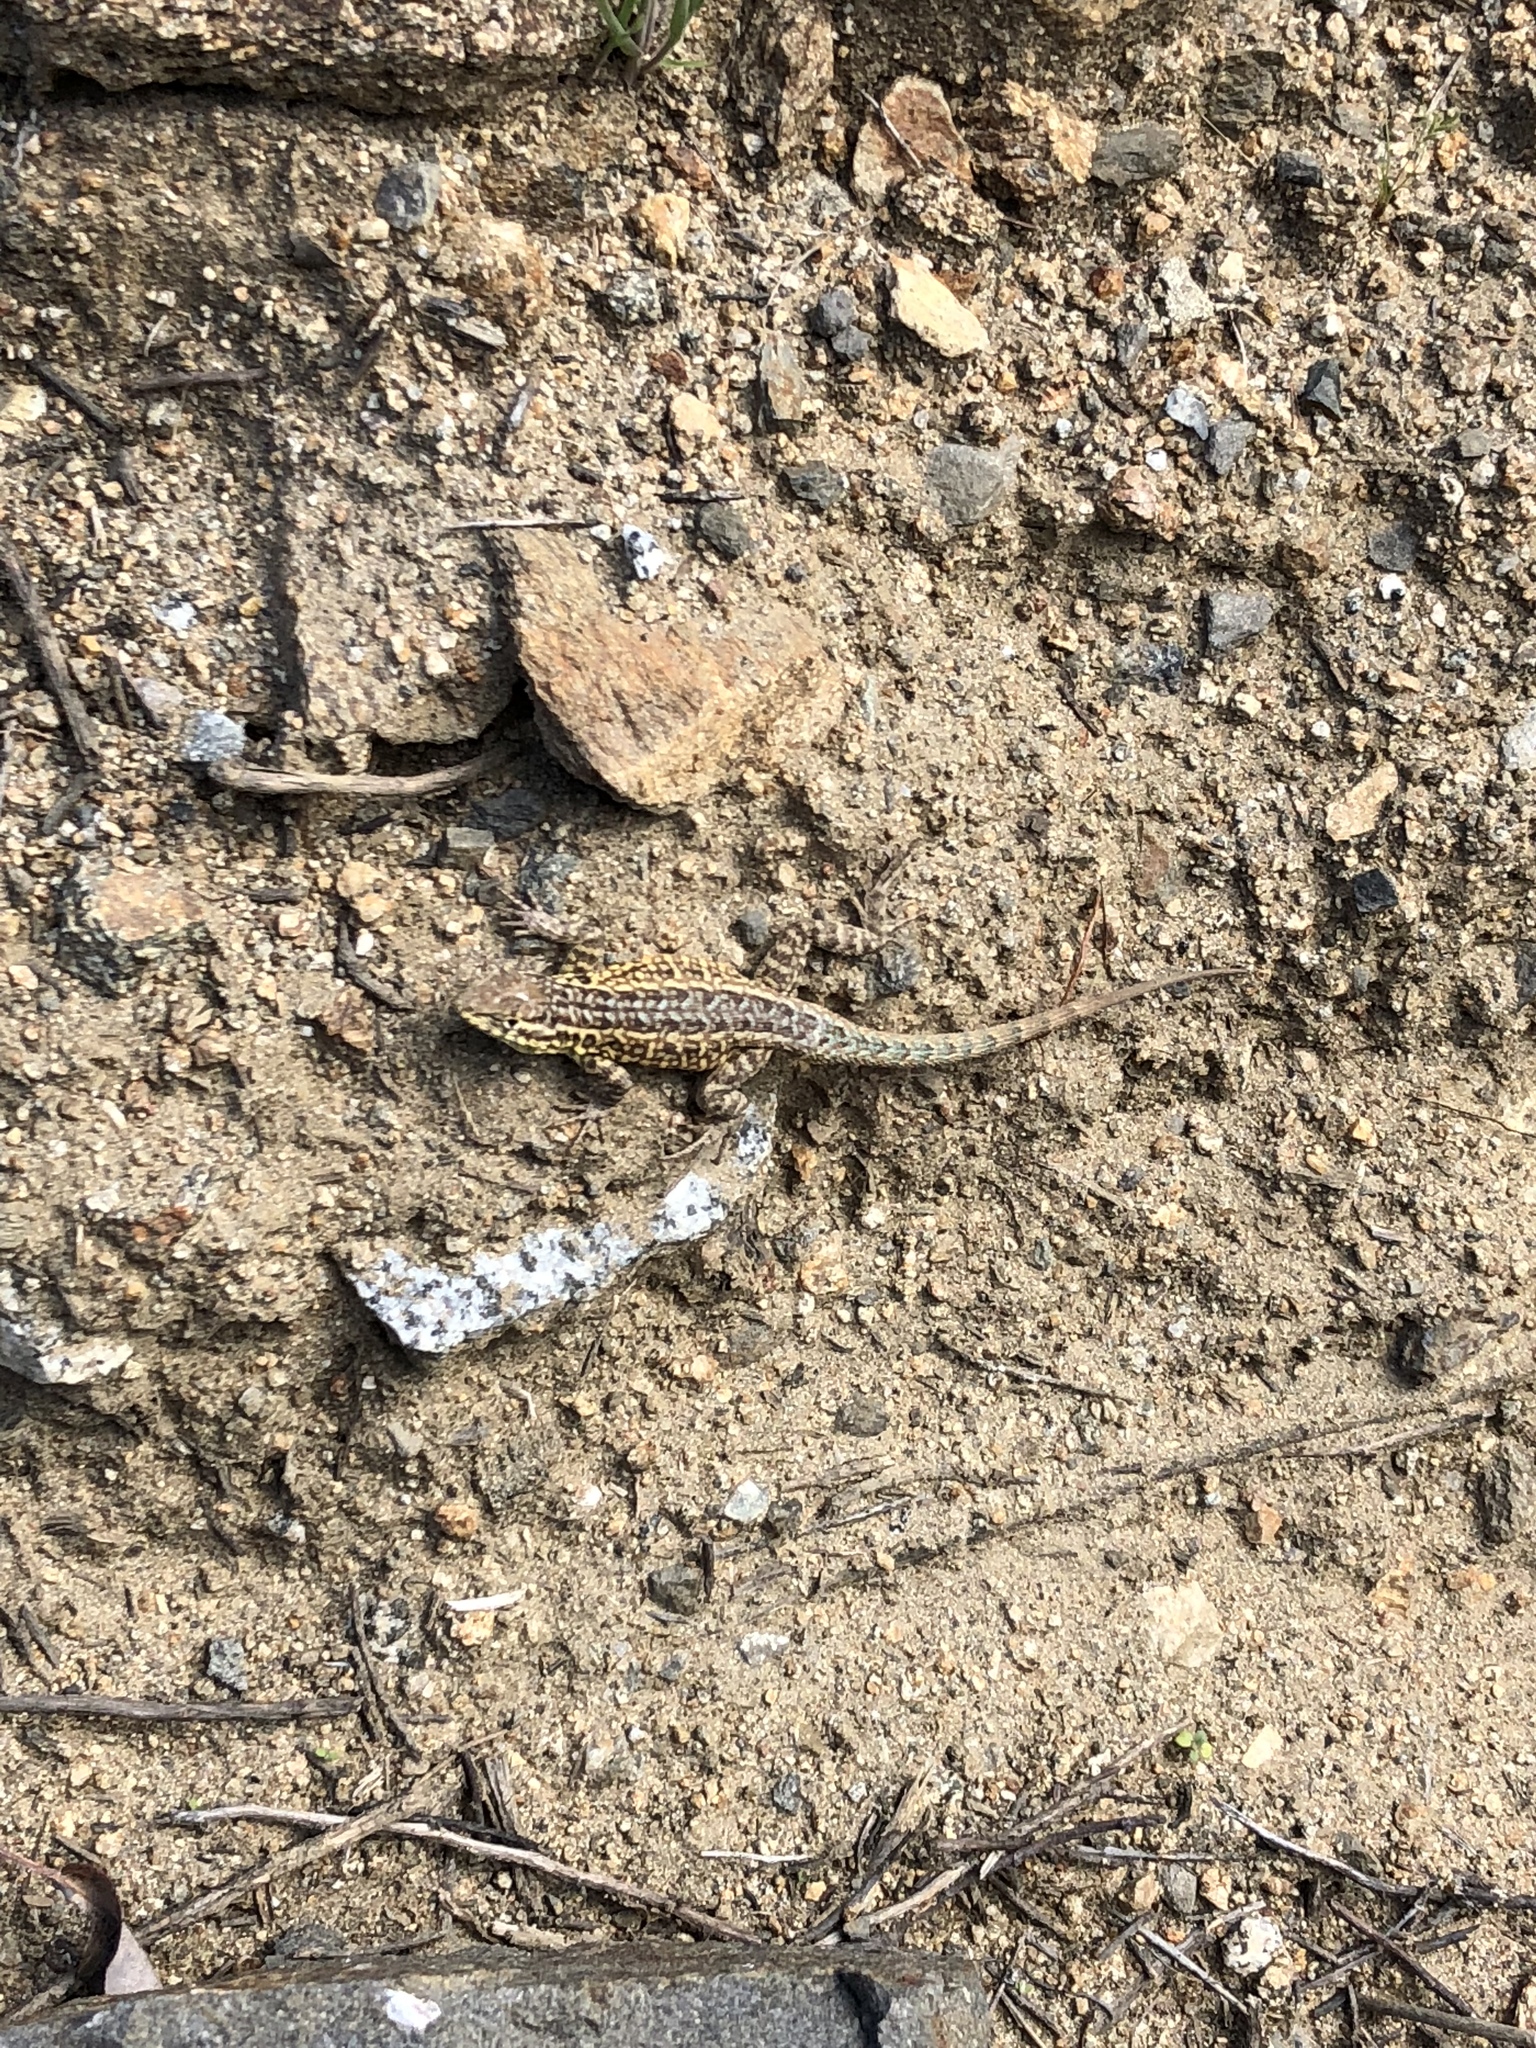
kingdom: Animalia
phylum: Chordata
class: Squamata
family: Phrynosomatidae
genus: Uta
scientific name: Uta stansburiana
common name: Side-blotched lizard
